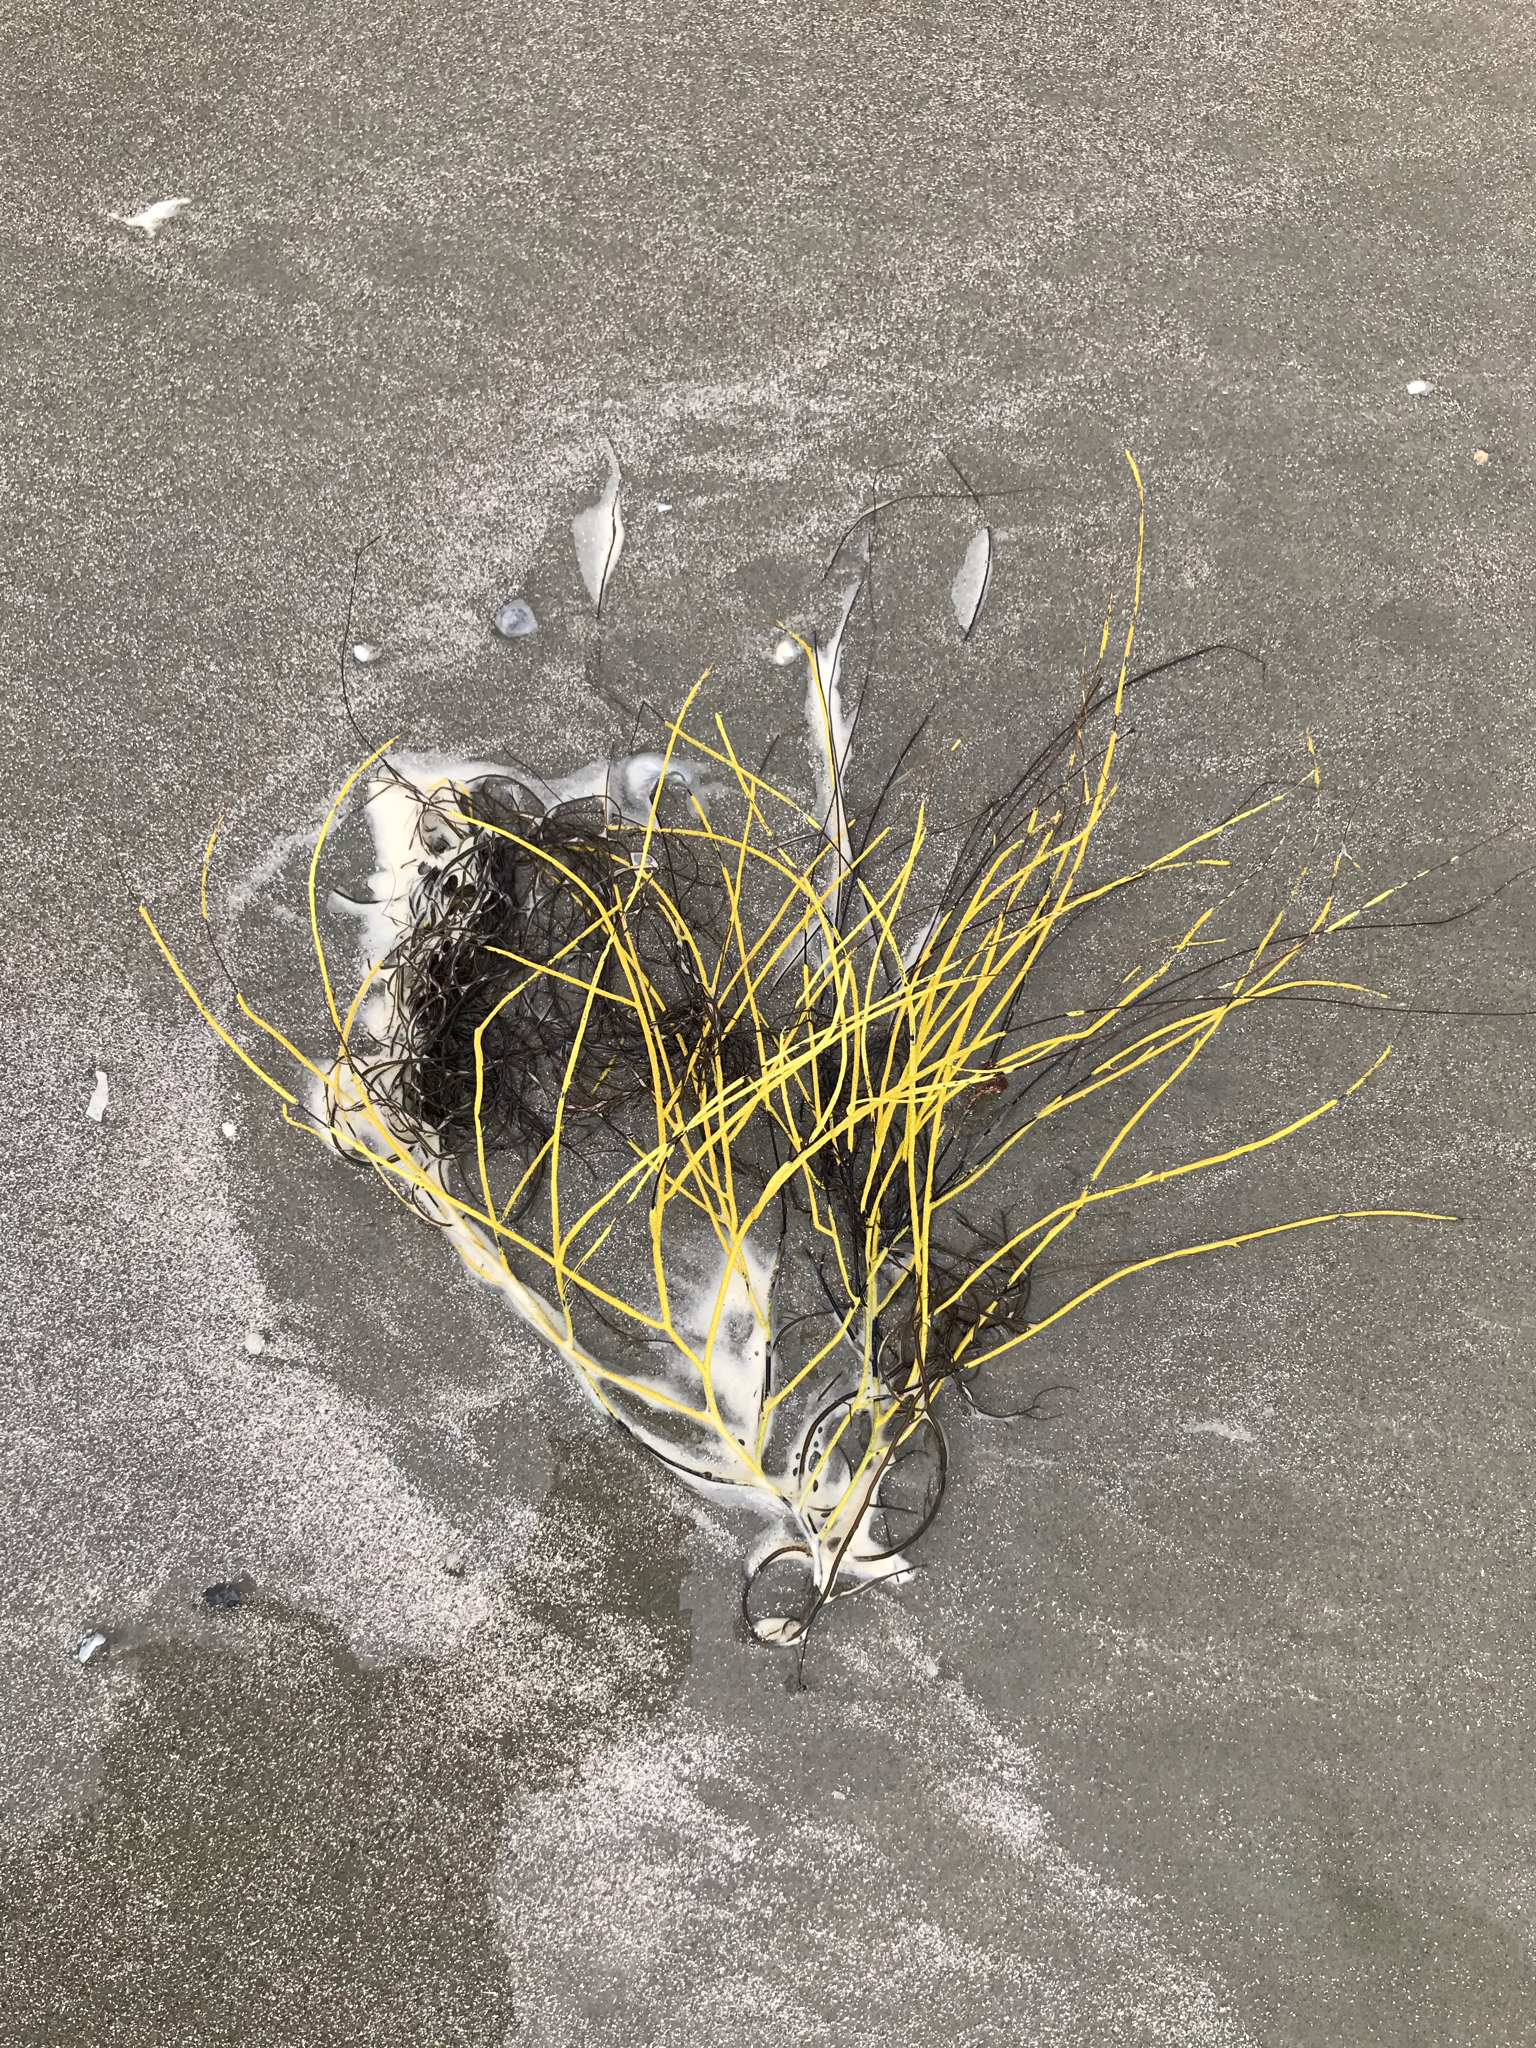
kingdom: Animalia
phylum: Cnidaria
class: Anthozoa
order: Malacalcyonacea
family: Gorgoniidae
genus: Leptogorgia
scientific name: Leptogorgia virgulata
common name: Colorful sea whip
